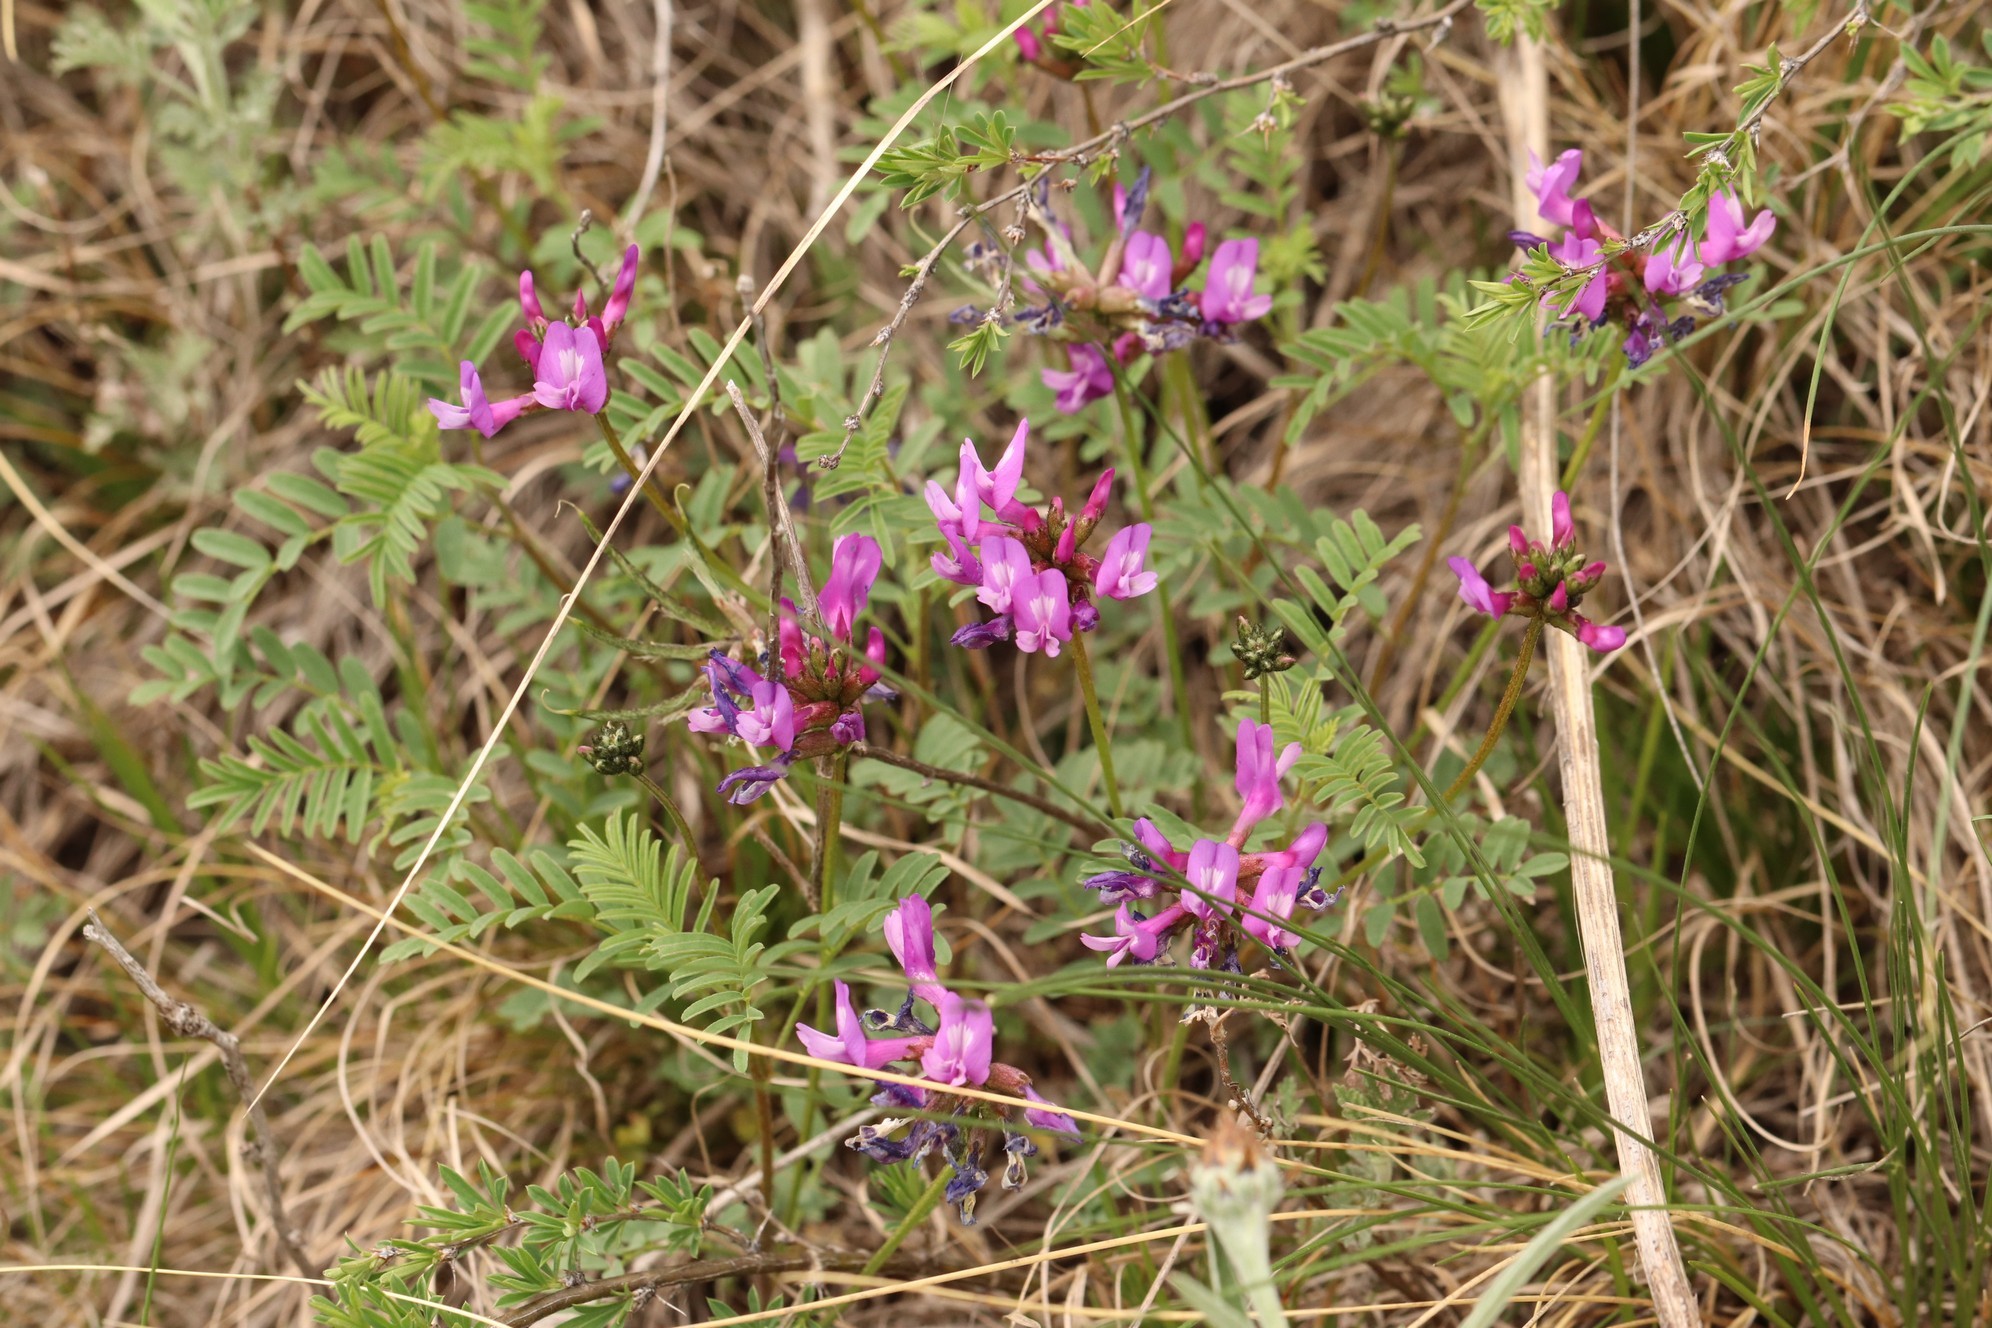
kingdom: Plantae
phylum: Tracheophyta
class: Magnoliopsida
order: Fabales
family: Fabaceae
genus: Astragalus
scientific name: Astragalus ceratoides
